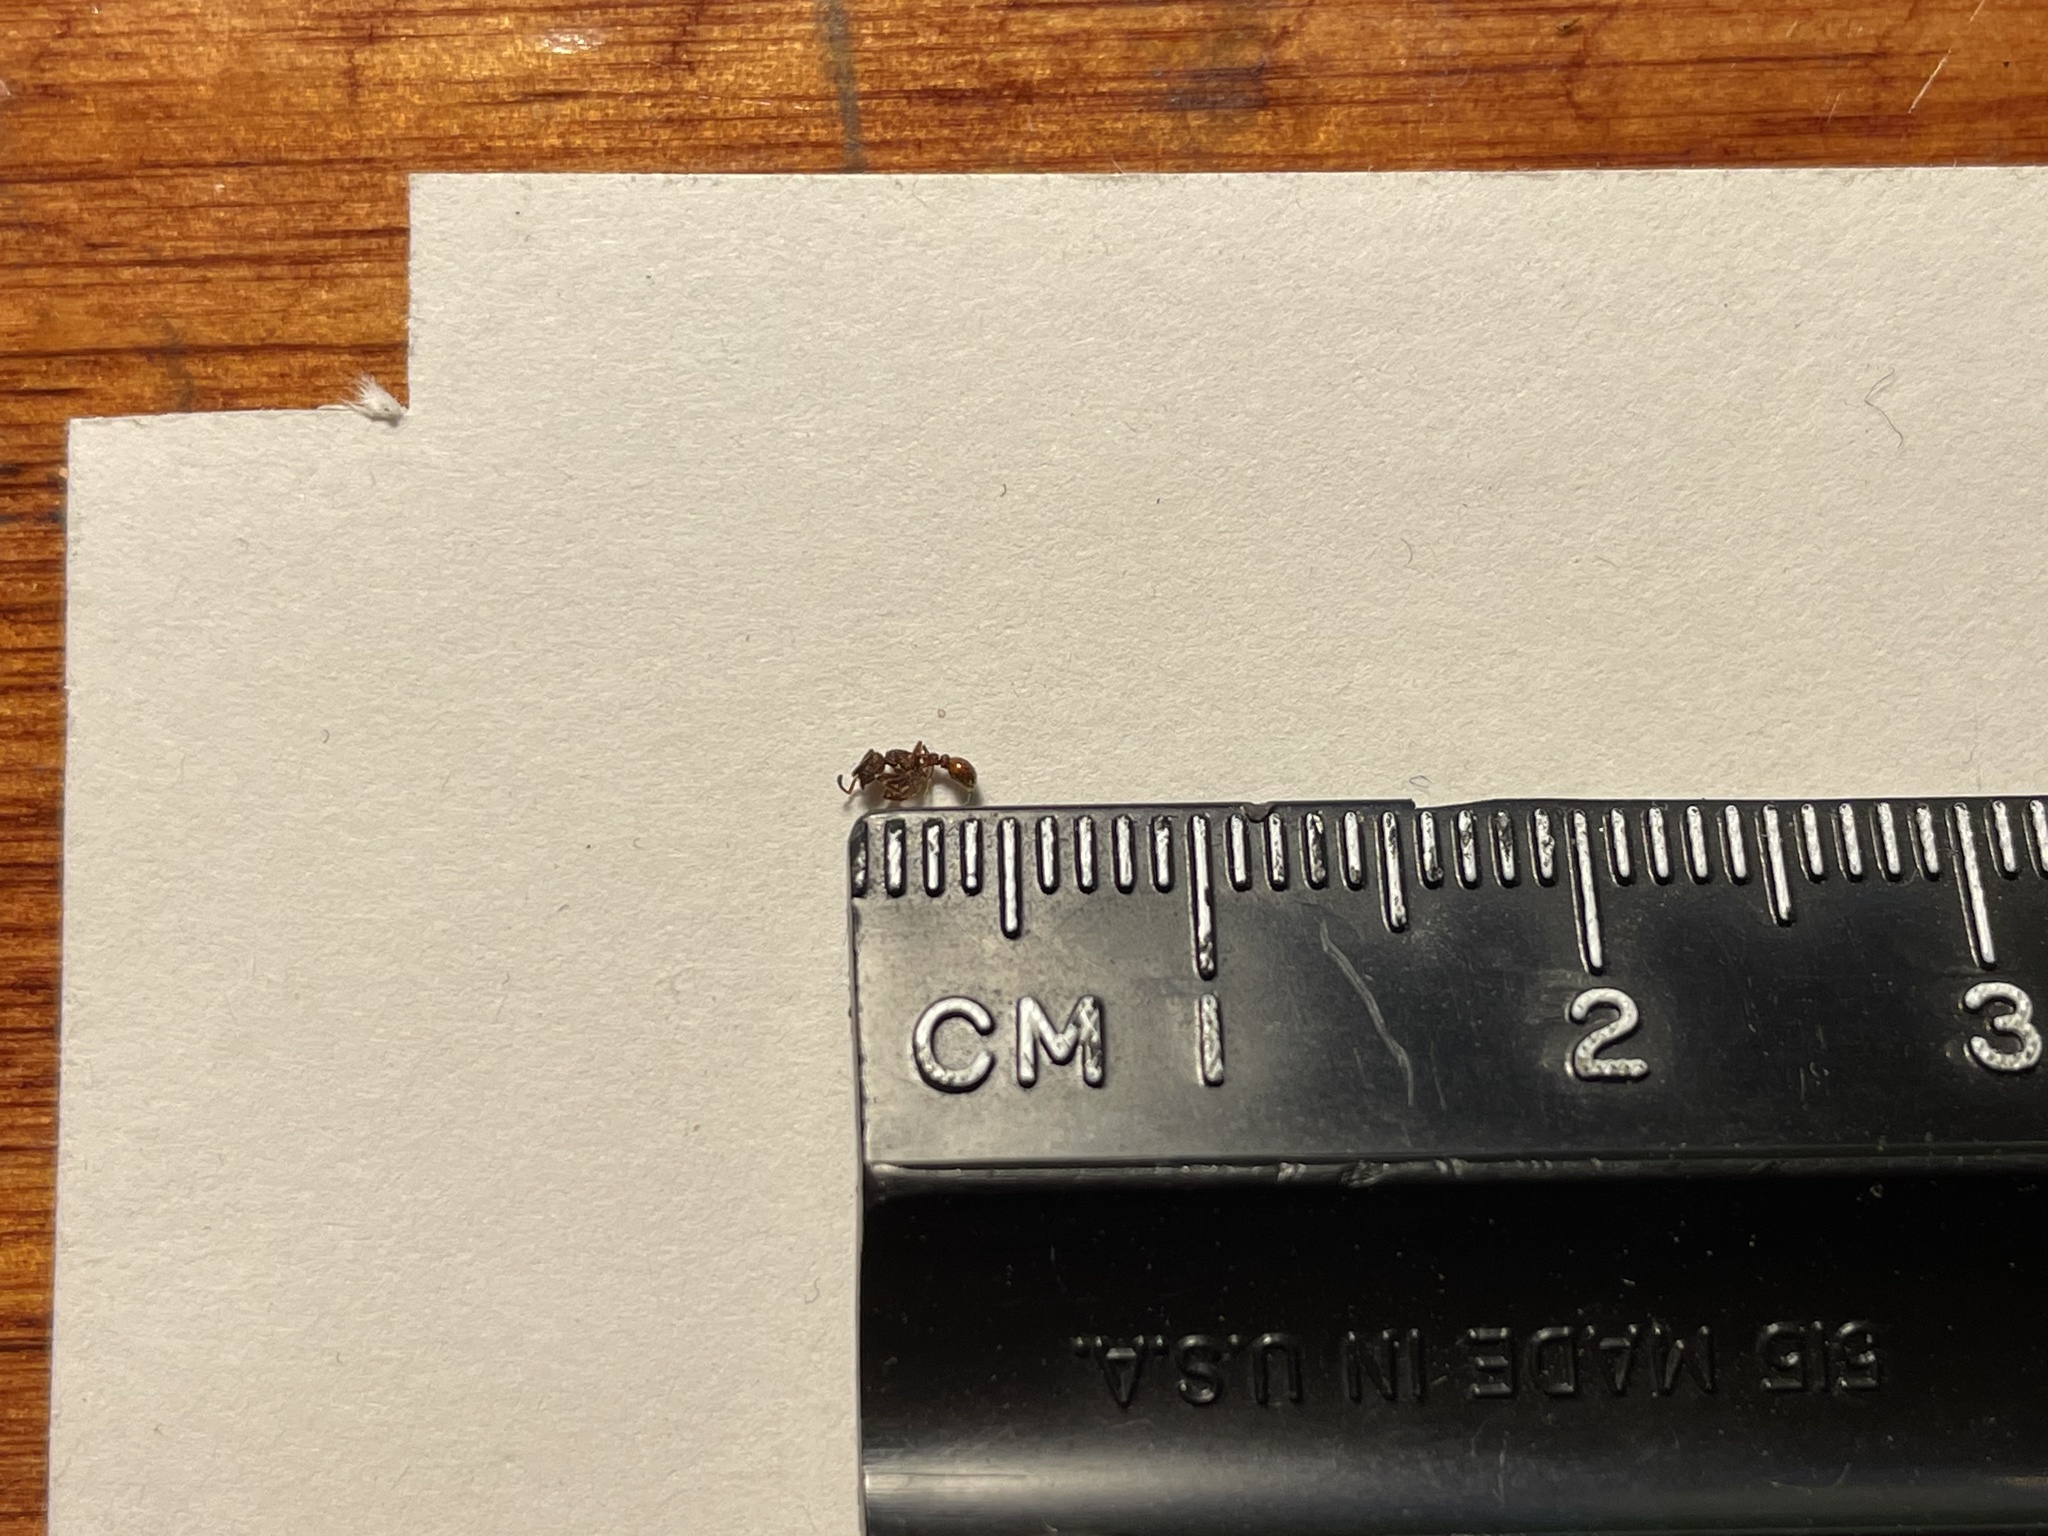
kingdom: Animalia
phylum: Arthropoda
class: Insecta
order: Hymenoptera
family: Formicidae
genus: Tetramorium
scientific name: Tetramorium spinosum
